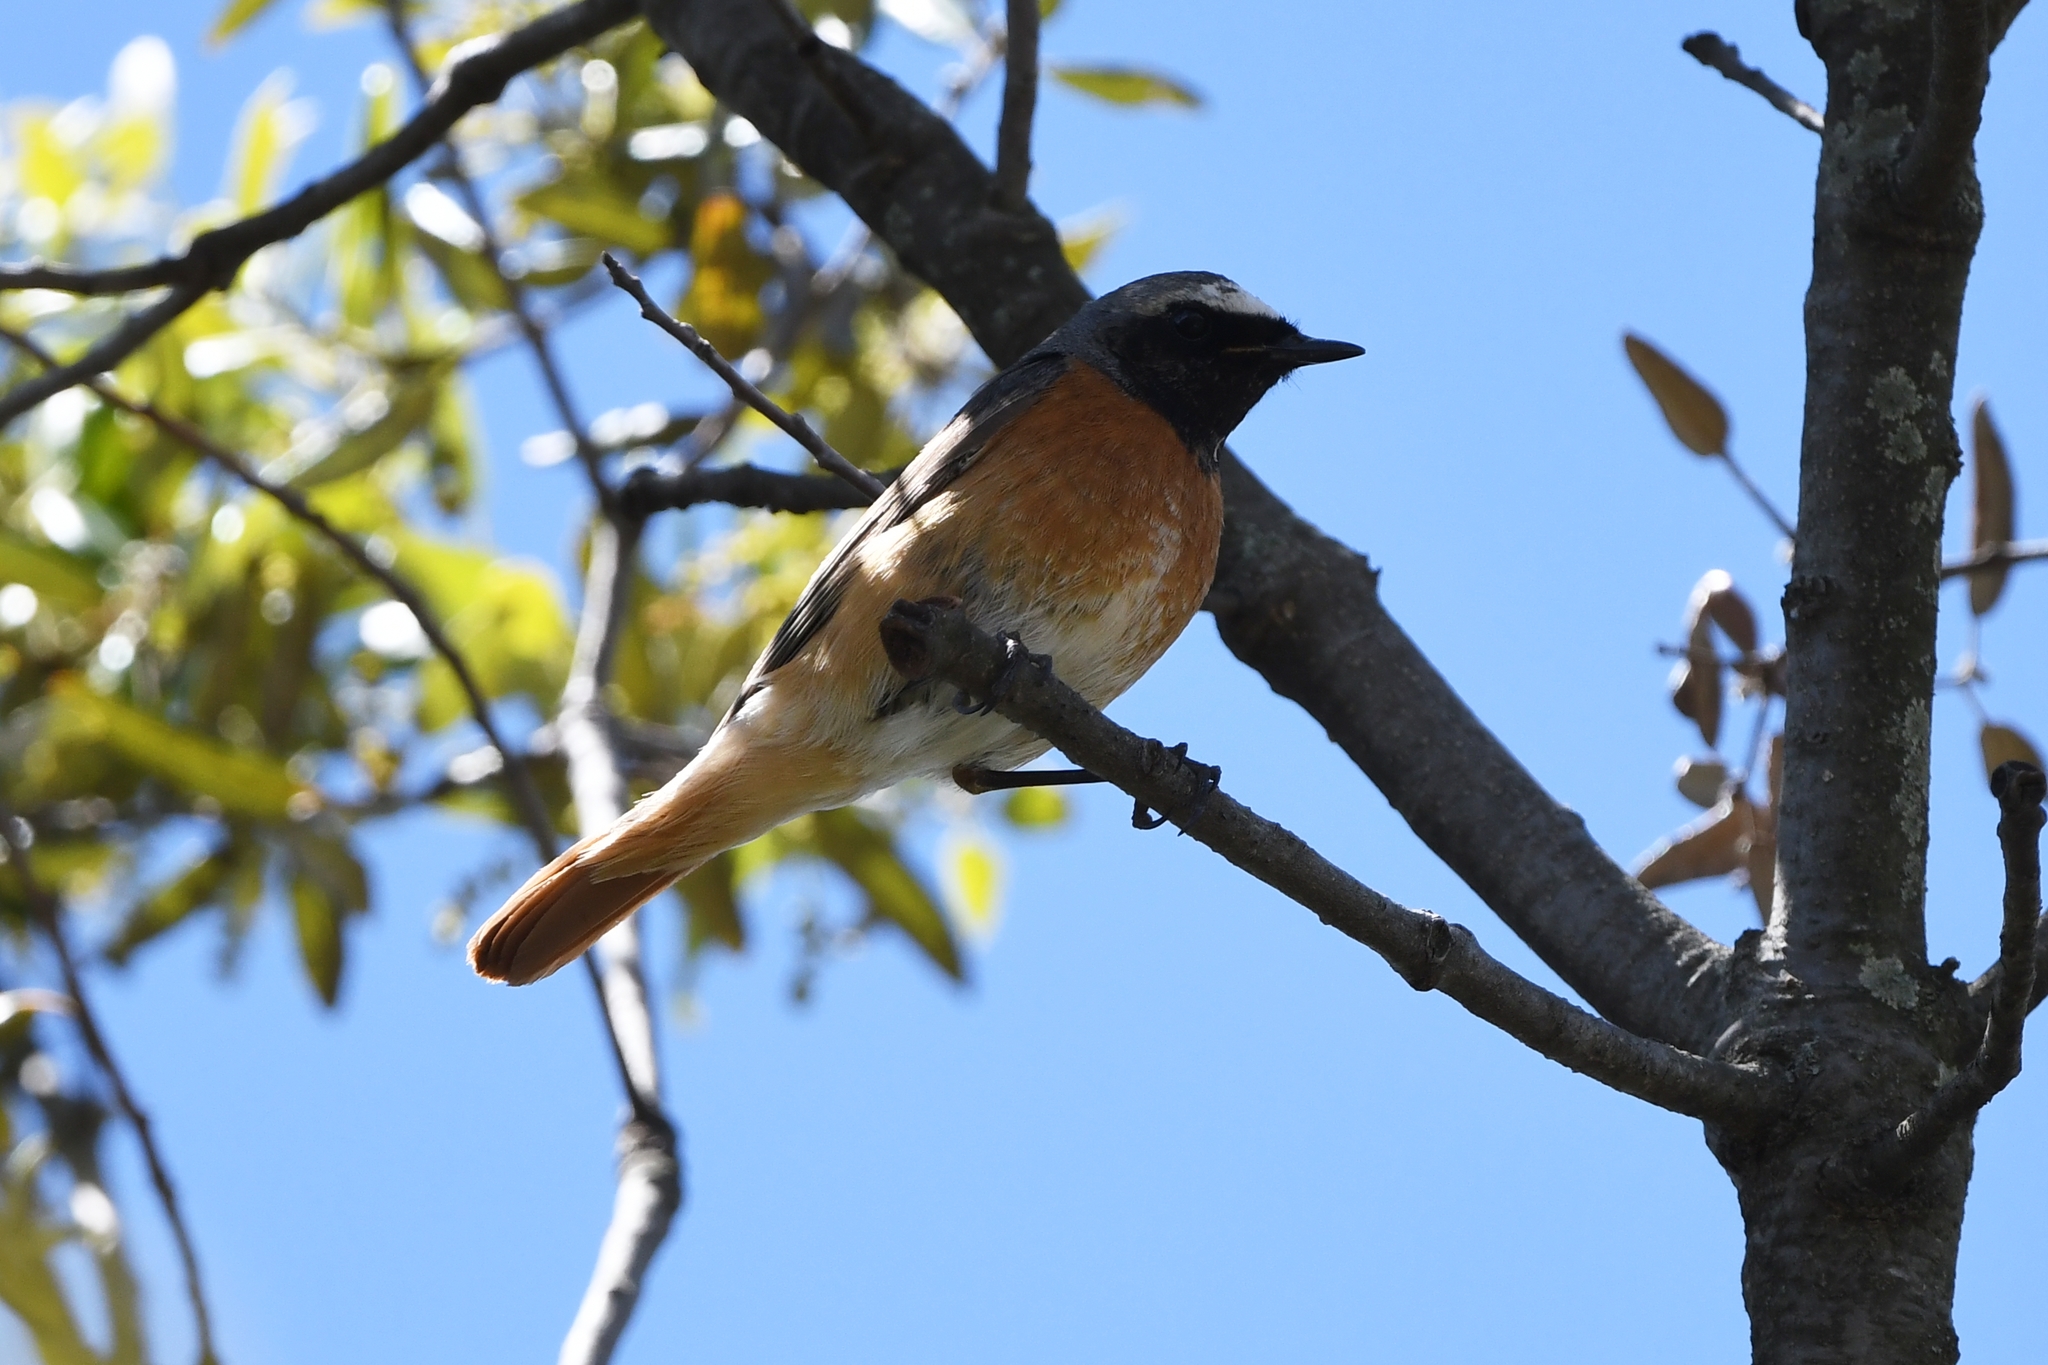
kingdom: Animalia
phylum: Chordata
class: Aves
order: Passeriformes
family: Muscicapidae
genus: Phoenicurus
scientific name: Phoenicurus phoenicurus
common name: Common redstart
